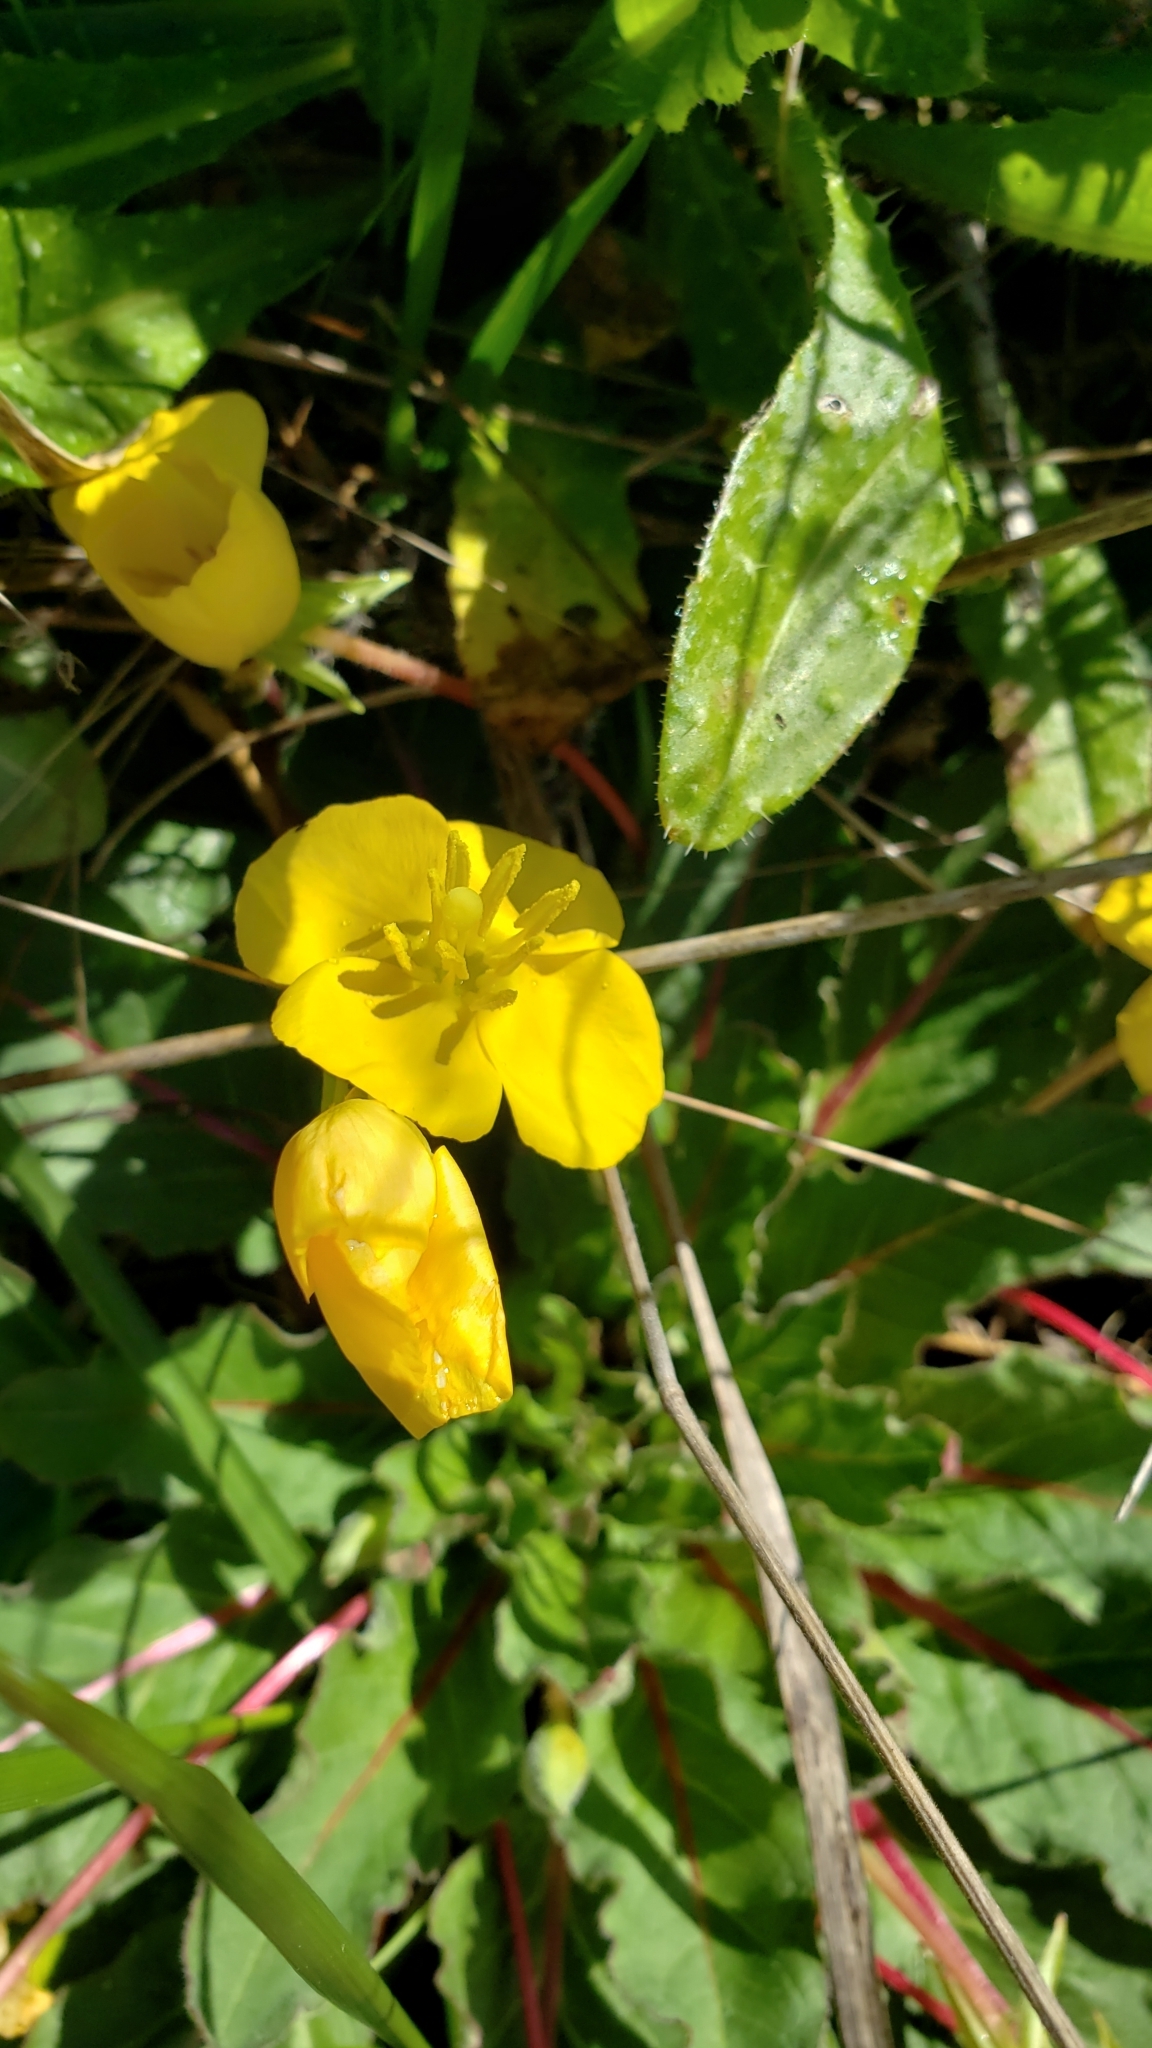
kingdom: Plantae
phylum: Tracheophyta
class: Magnoliopsida
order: Myrtales
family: Onagraceae
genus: Taraxia
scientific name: Taraxia ovata
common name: Goldeneggs
